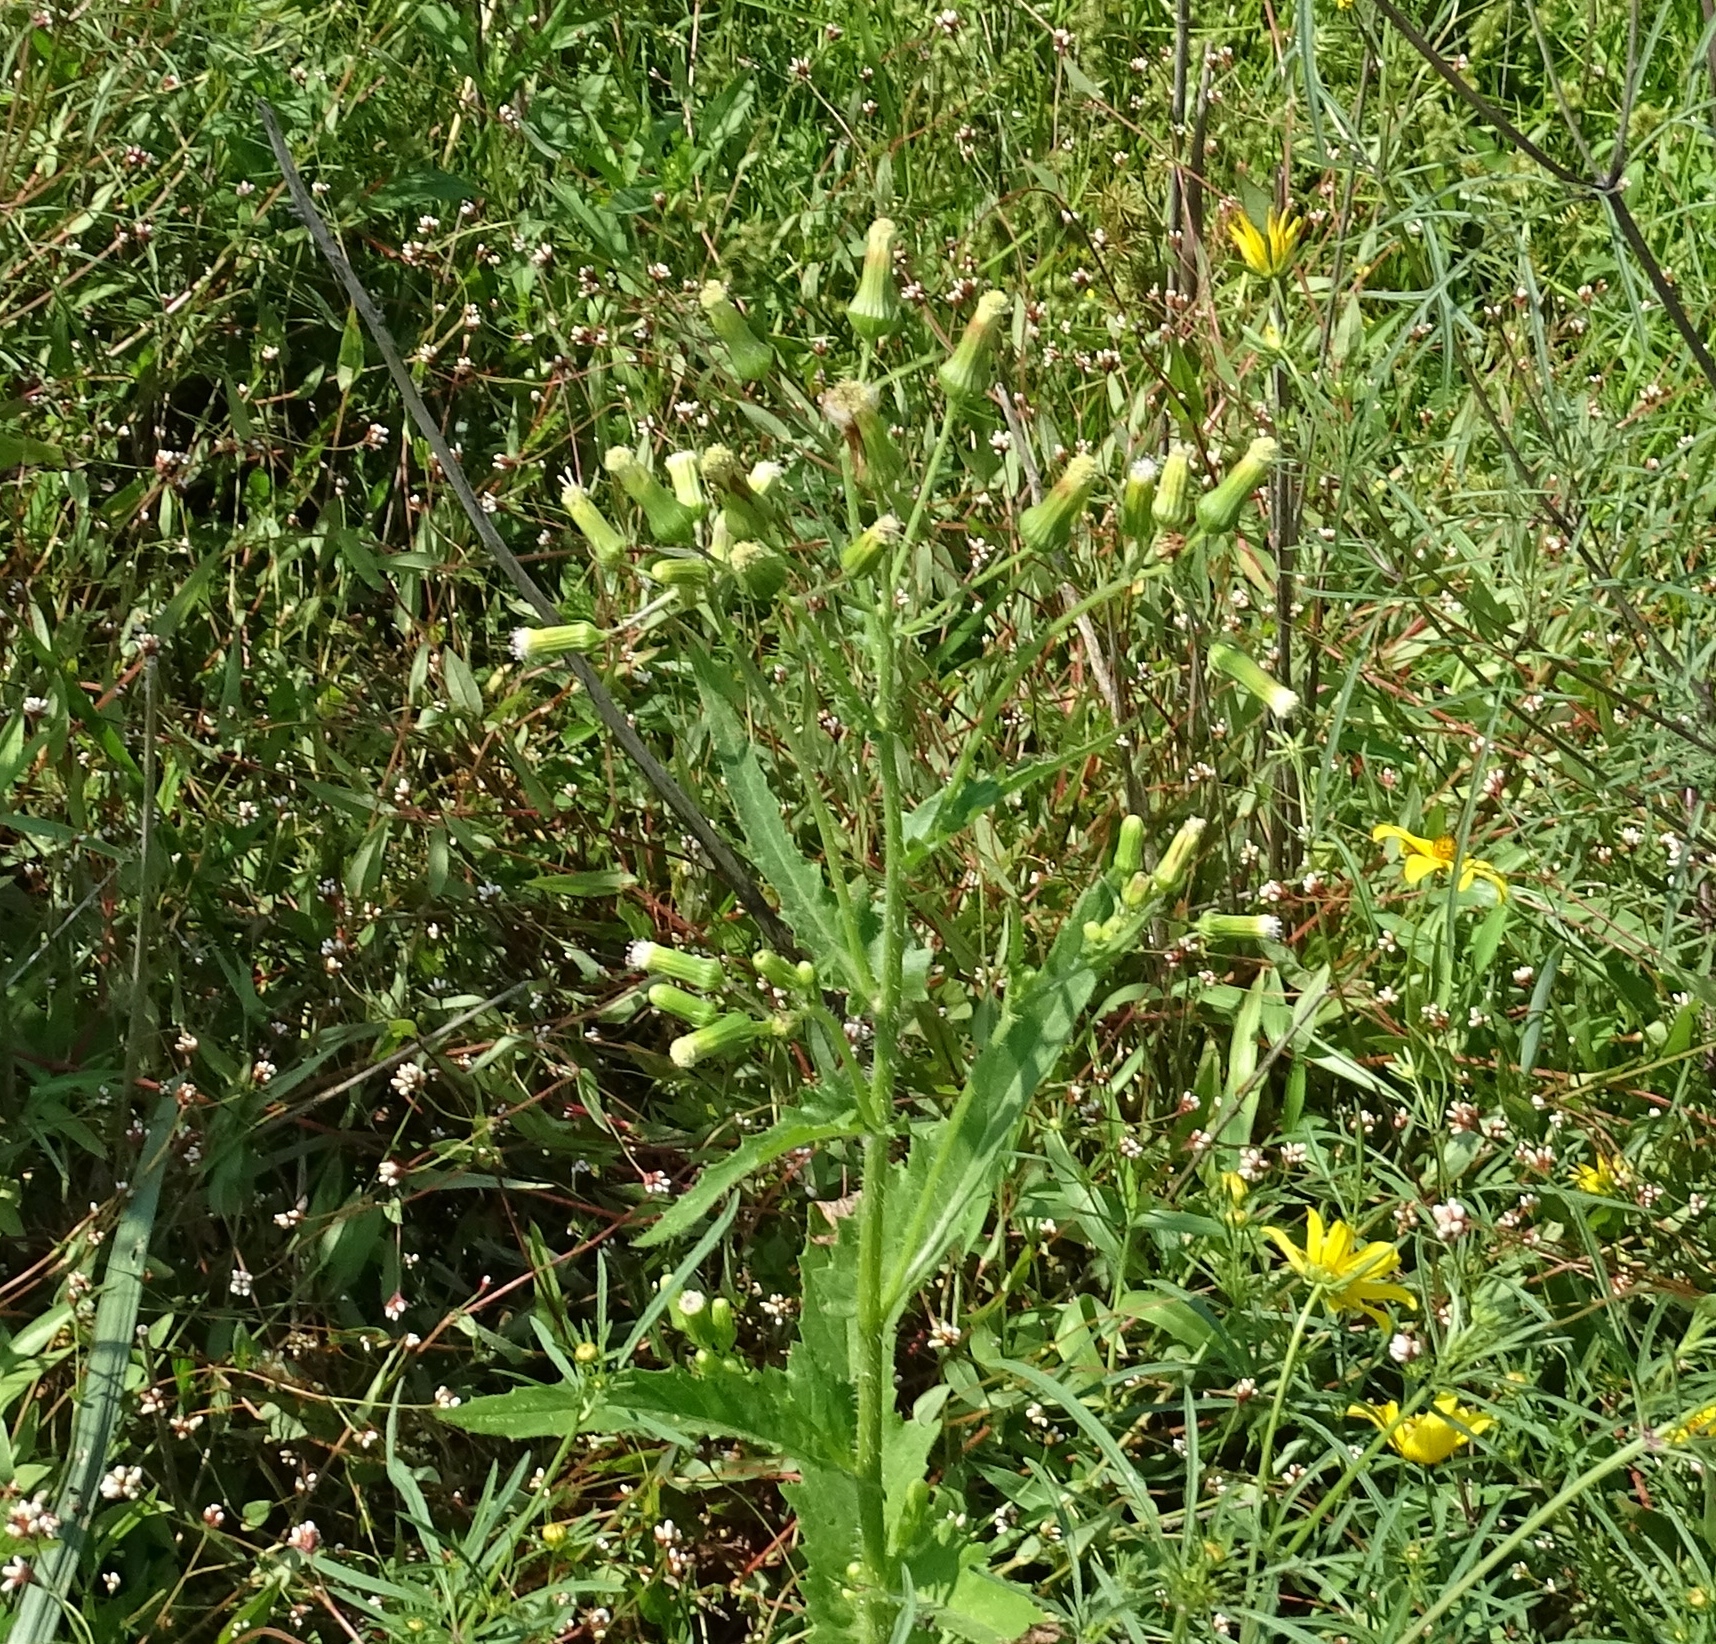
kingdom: Plantae
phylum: Tracheophyta
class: Magnoliopsida
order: Asterales
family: Asteraceae
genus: Erechtites
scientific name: Erechtites hieraciifolius
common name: American burnweed
